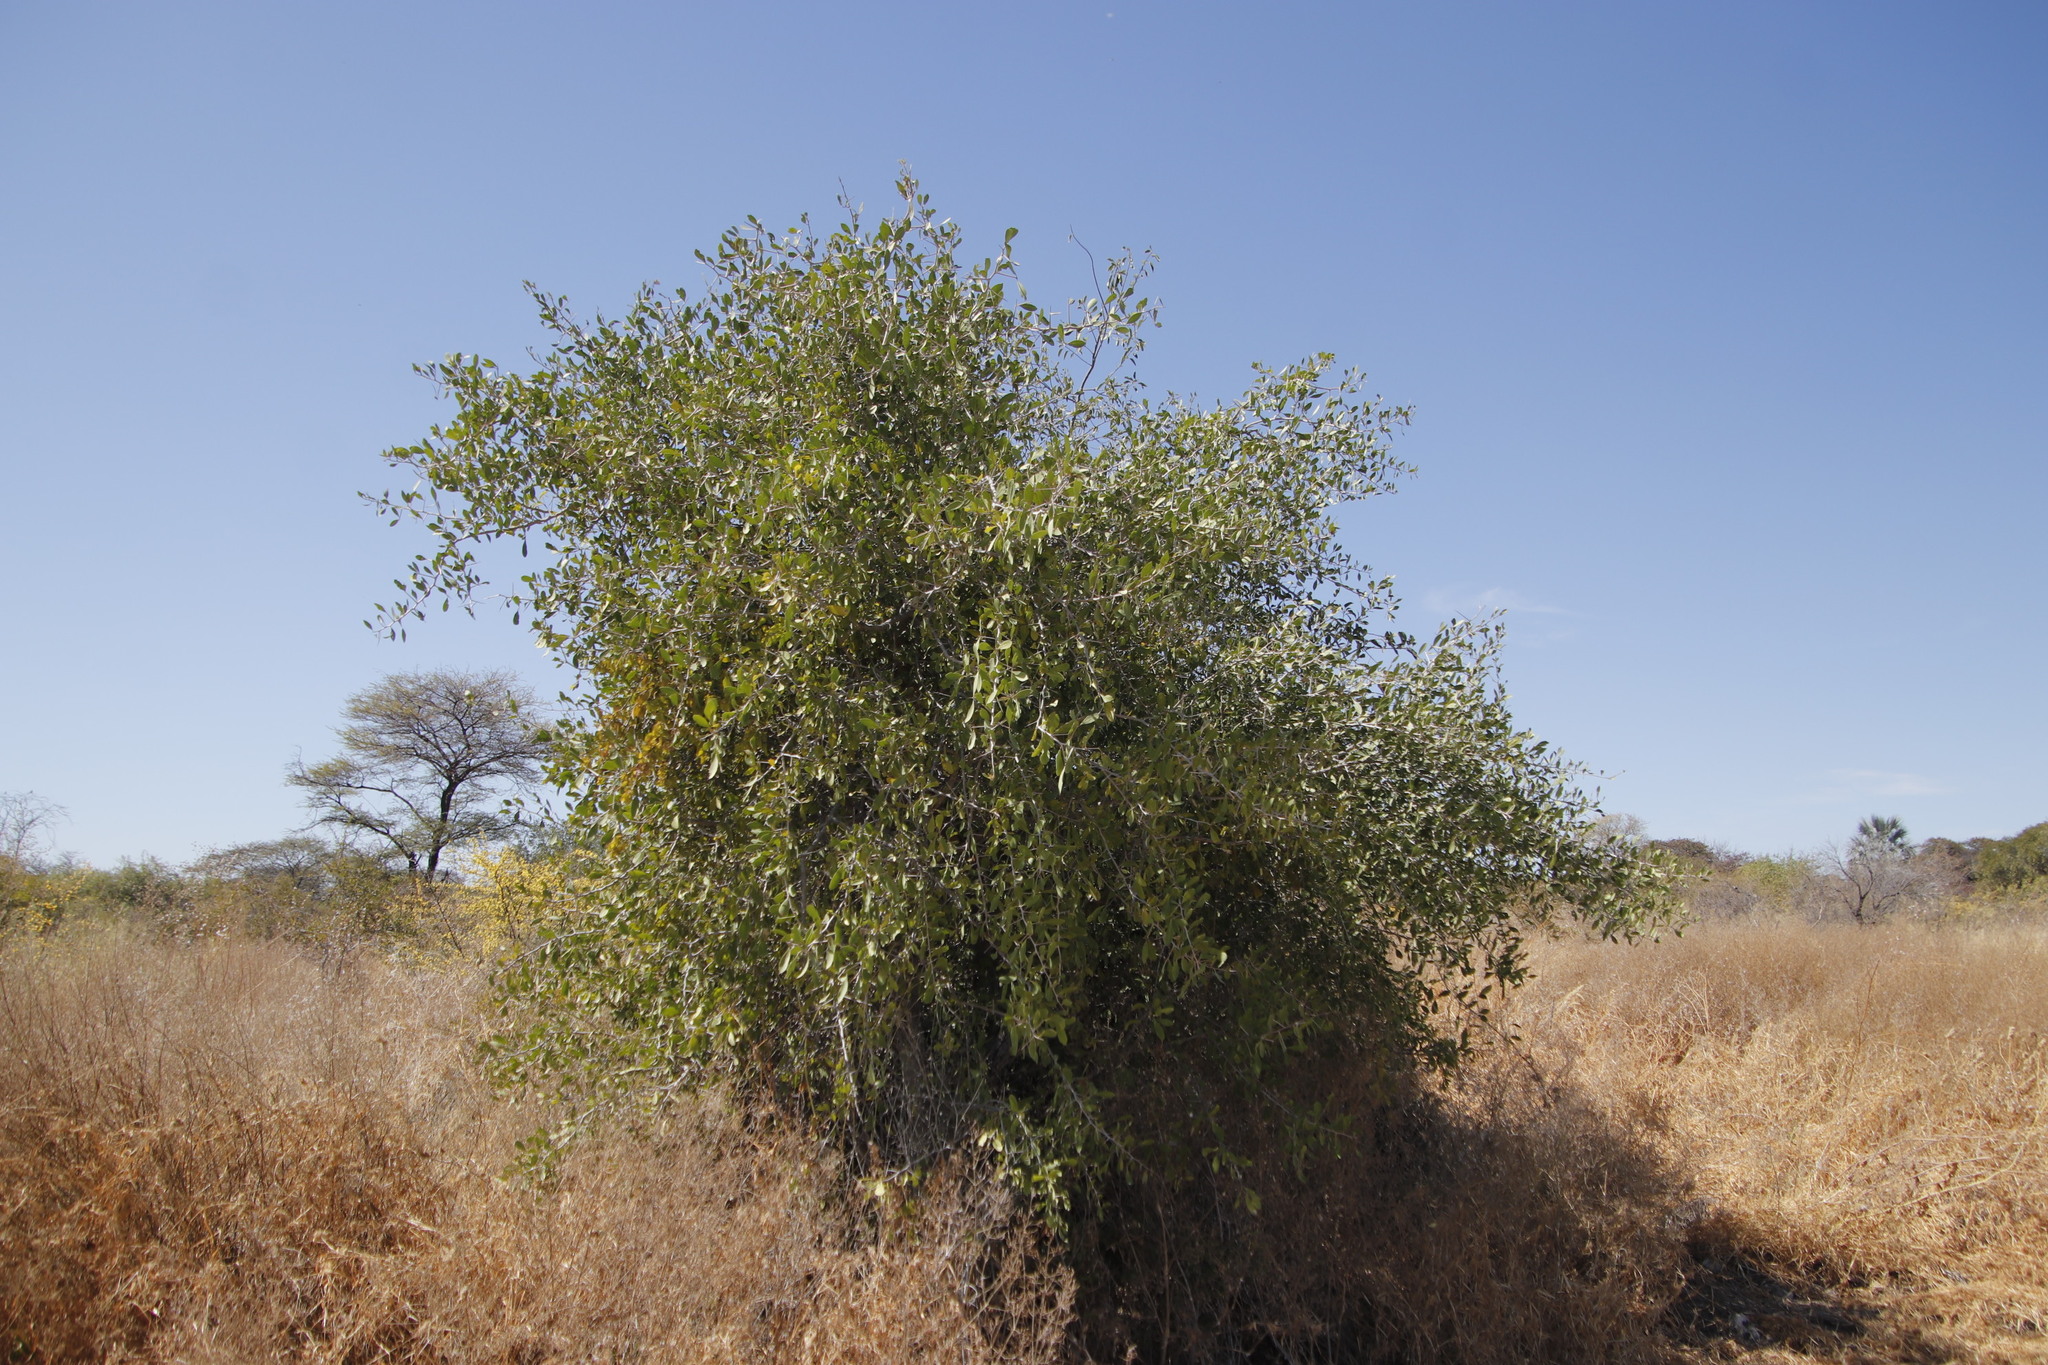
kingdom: Plantae
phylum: Tracheophyta
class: Magnoliopsida
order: Celastrales
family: Celastraceae
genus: Gymnosporia
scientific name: Gymnosporia senegalensis
